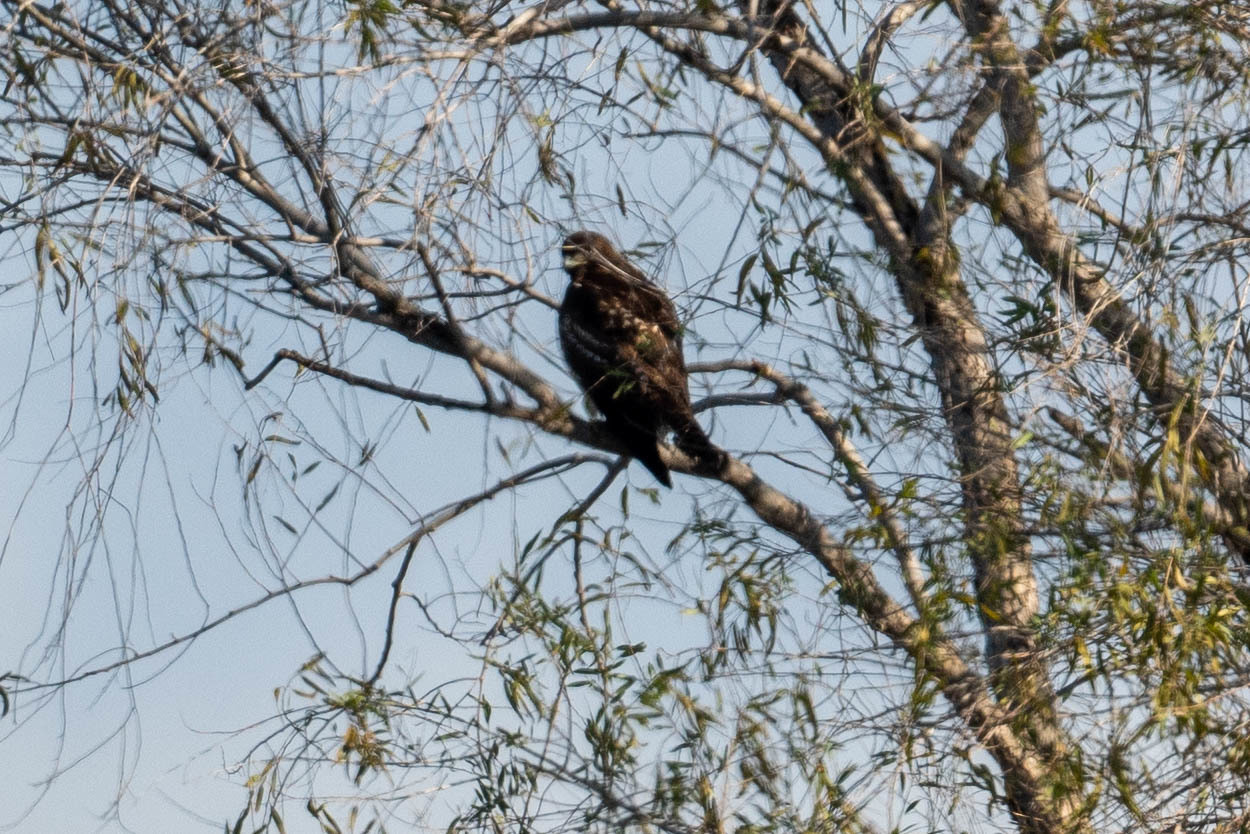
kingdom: Animalia
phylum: Chordata
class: Aves
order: Accipitriformes
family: Accipitridae
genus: Buteo
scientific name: Buteo jamaicensis
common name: Red-tailed hawk
